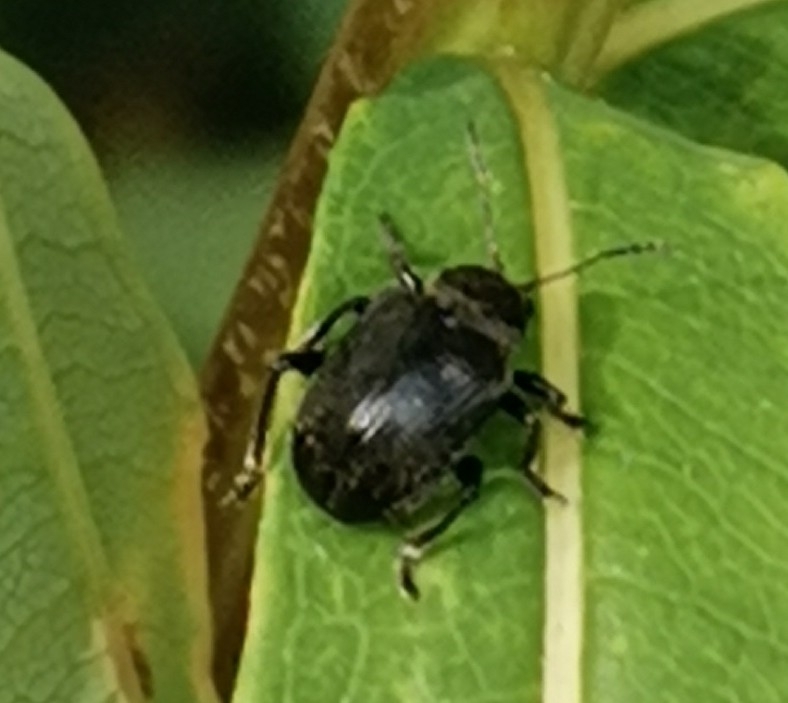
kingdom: Animalia
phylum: Arthropoda
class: Insecta
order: Coleoptera
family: Chrysomelidae
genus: Bromius
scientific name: Bromius obscurus
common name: Western grape rootworm
